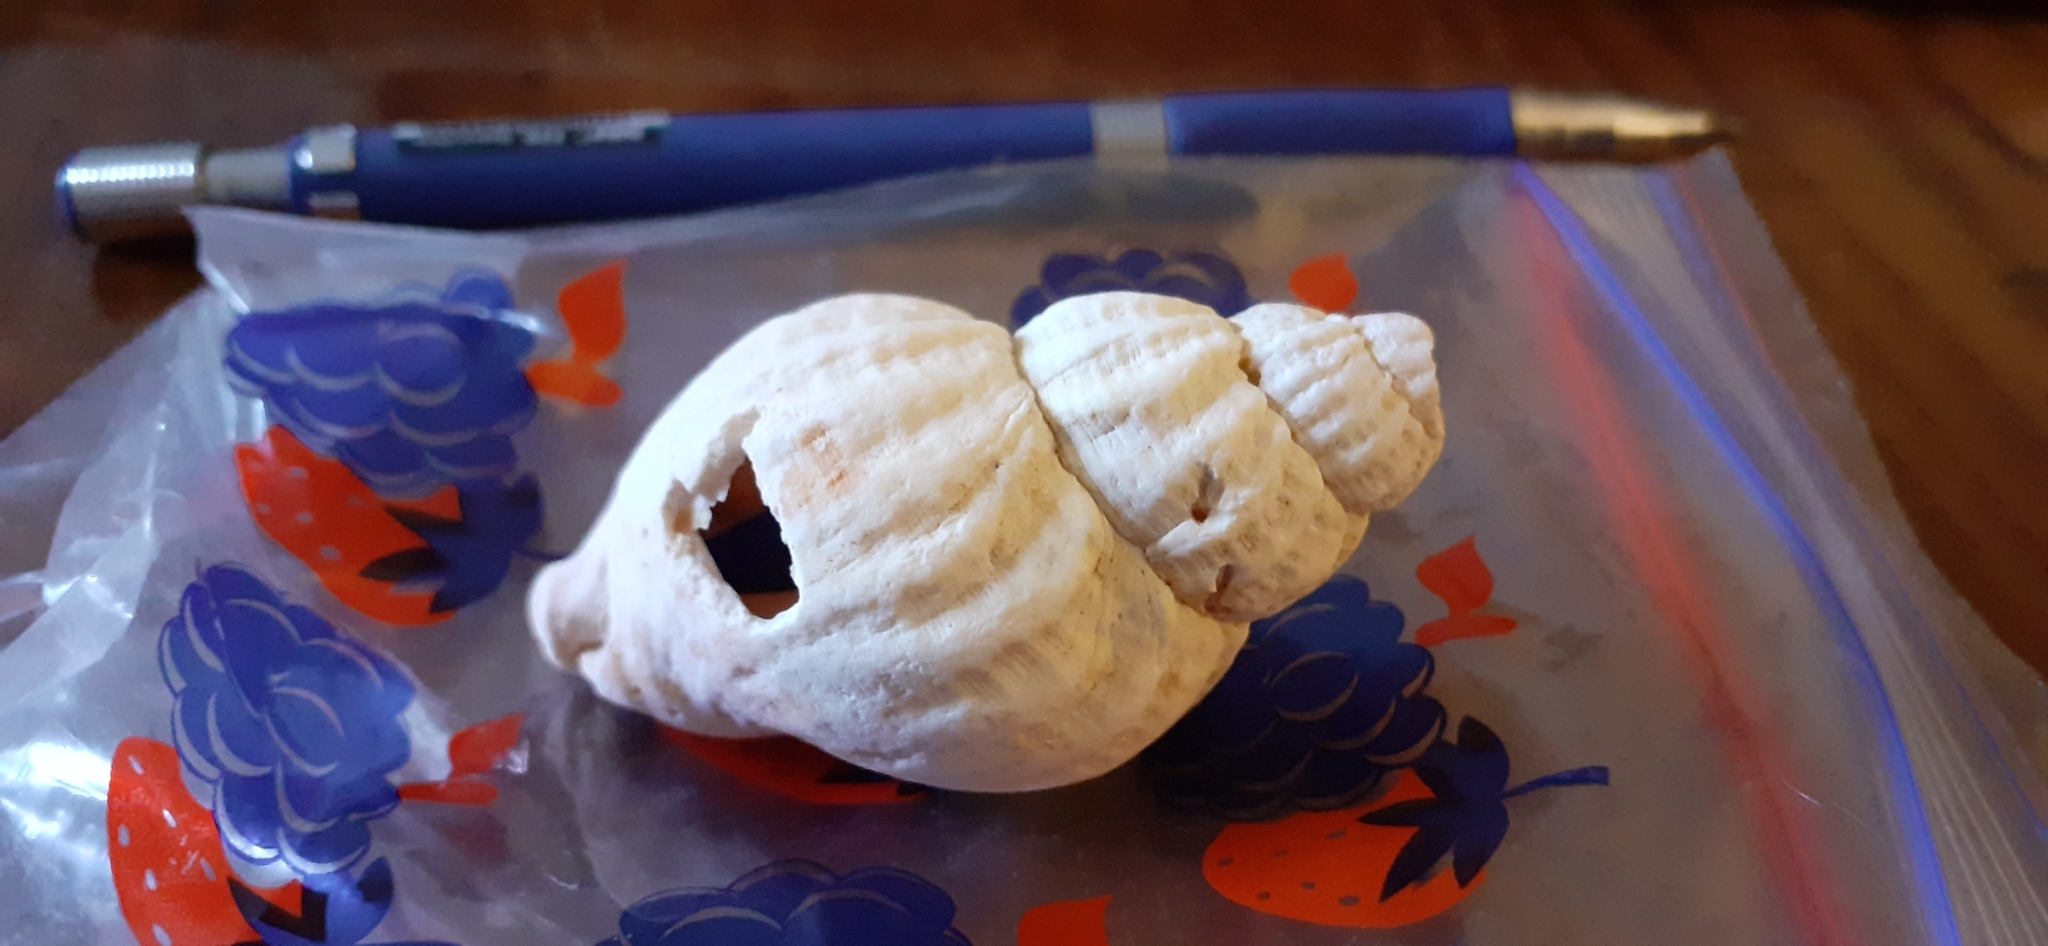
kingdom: Animalia
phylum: Mollusca
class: Gastropoda
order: Neogastropoda
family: Buccinidae
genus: Buccinum
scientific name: Buccinum undatum
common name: Common whelk
